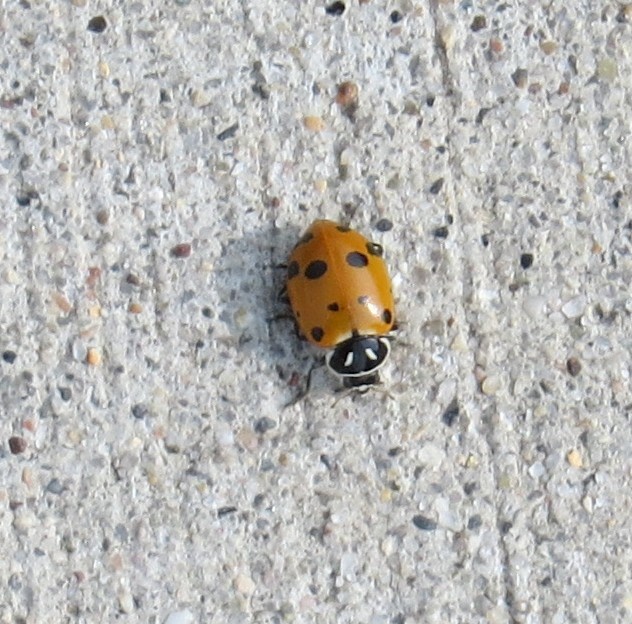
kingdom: Animalia
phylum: Arthropoda
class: Insecta
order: Coleoptera
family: Coccinellidae
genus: Hippodamia
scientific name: Hippodamia convergens
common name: Convergent lady beetle
